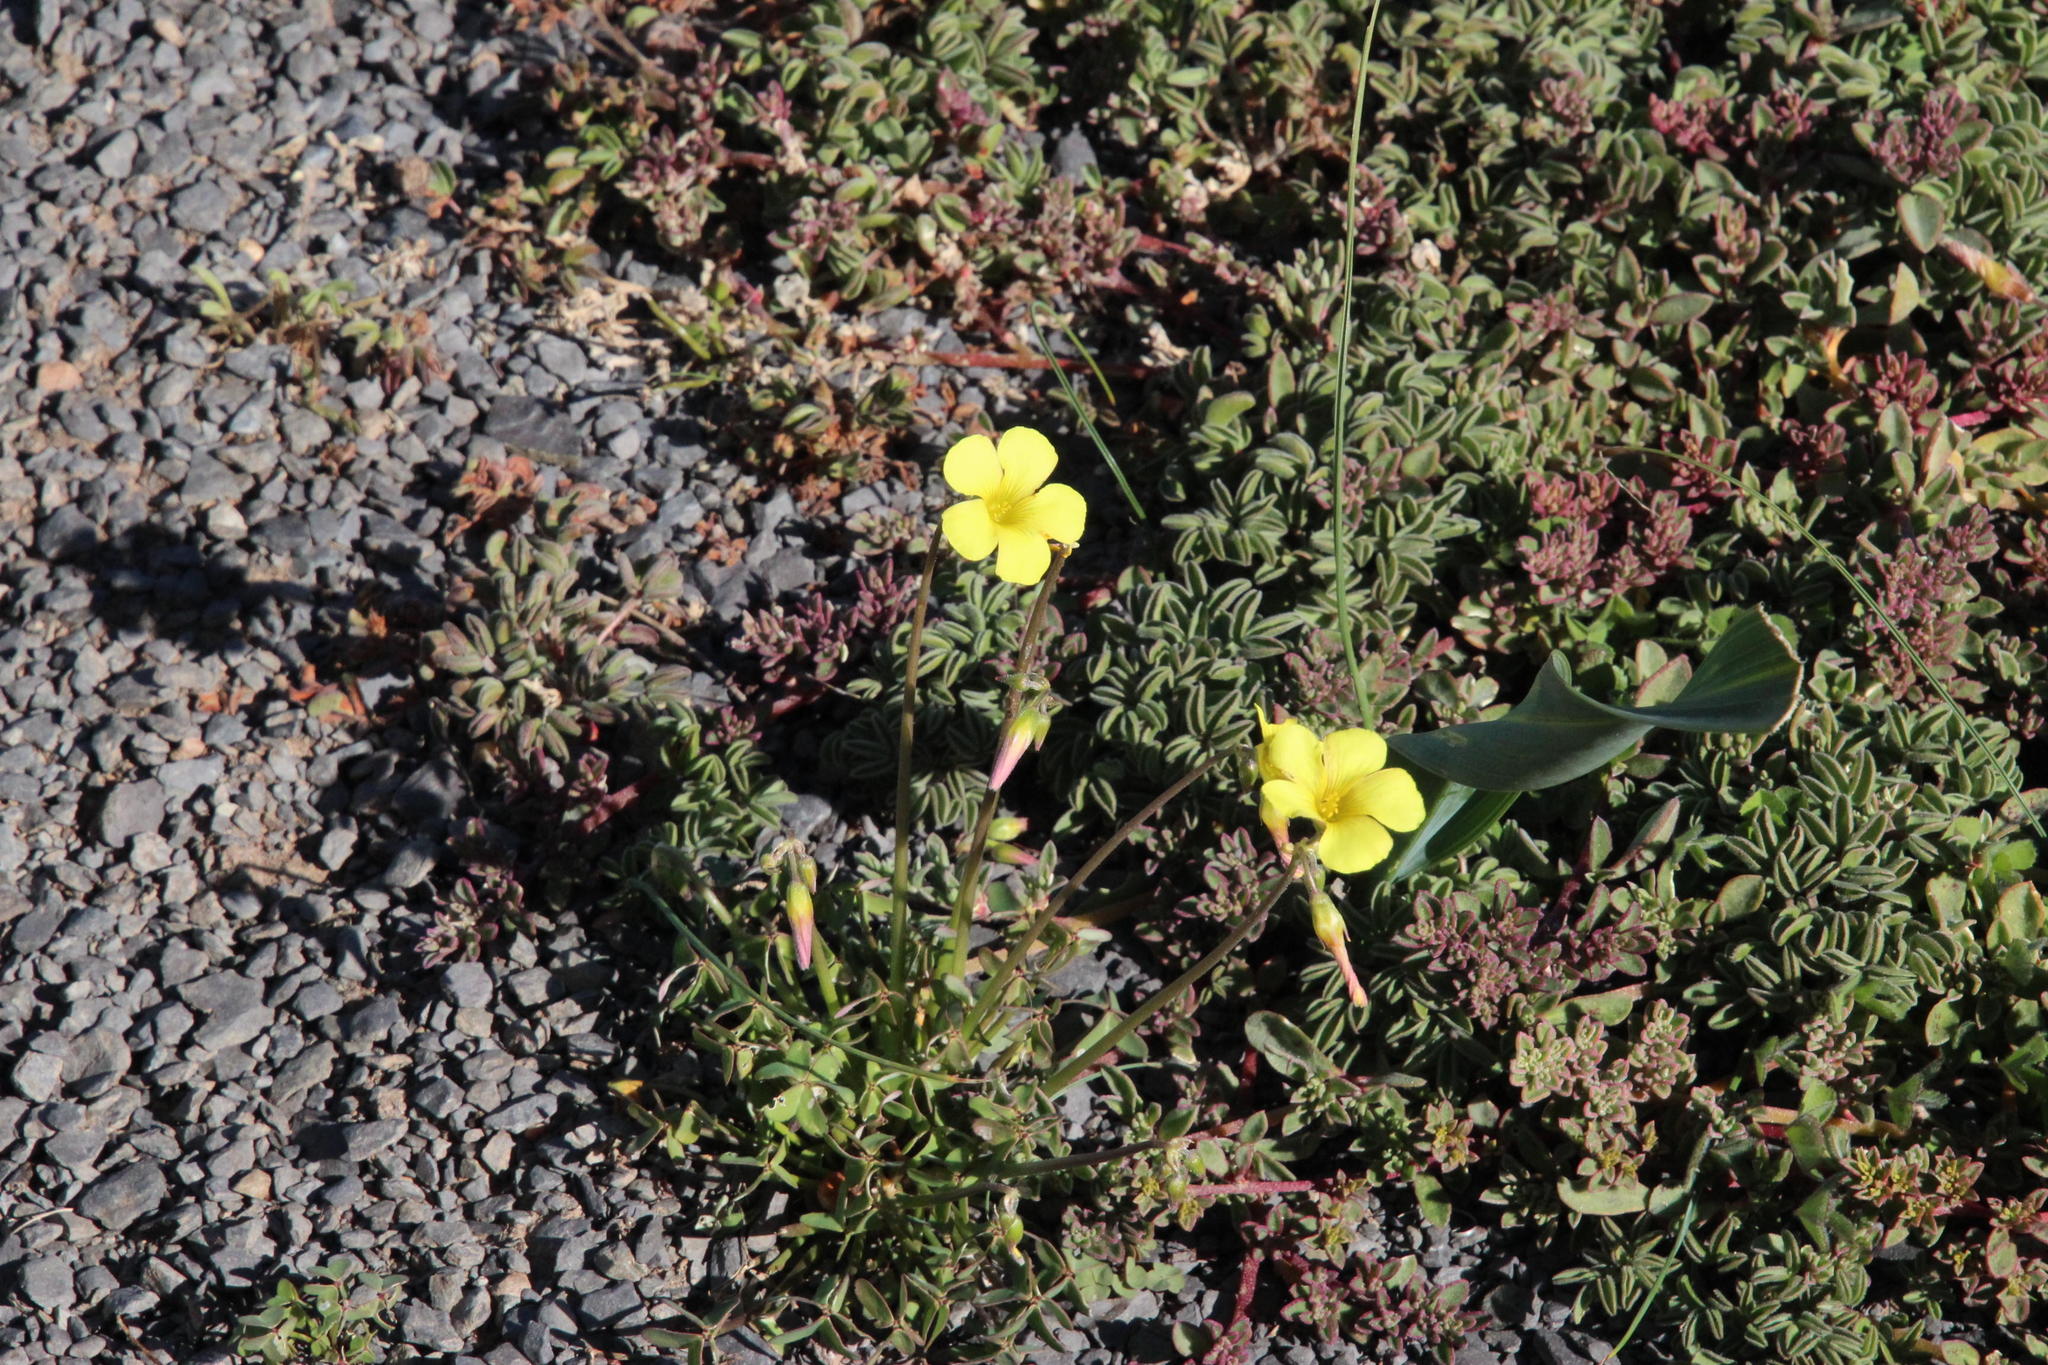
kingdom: Plantae
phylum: Tracheophyta
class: Magnoliopsida
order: Oxalidales
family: Oxalidaceae
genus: Oxalis
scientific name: Oxalis pes-caprae
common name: Bermuda-buttercup
